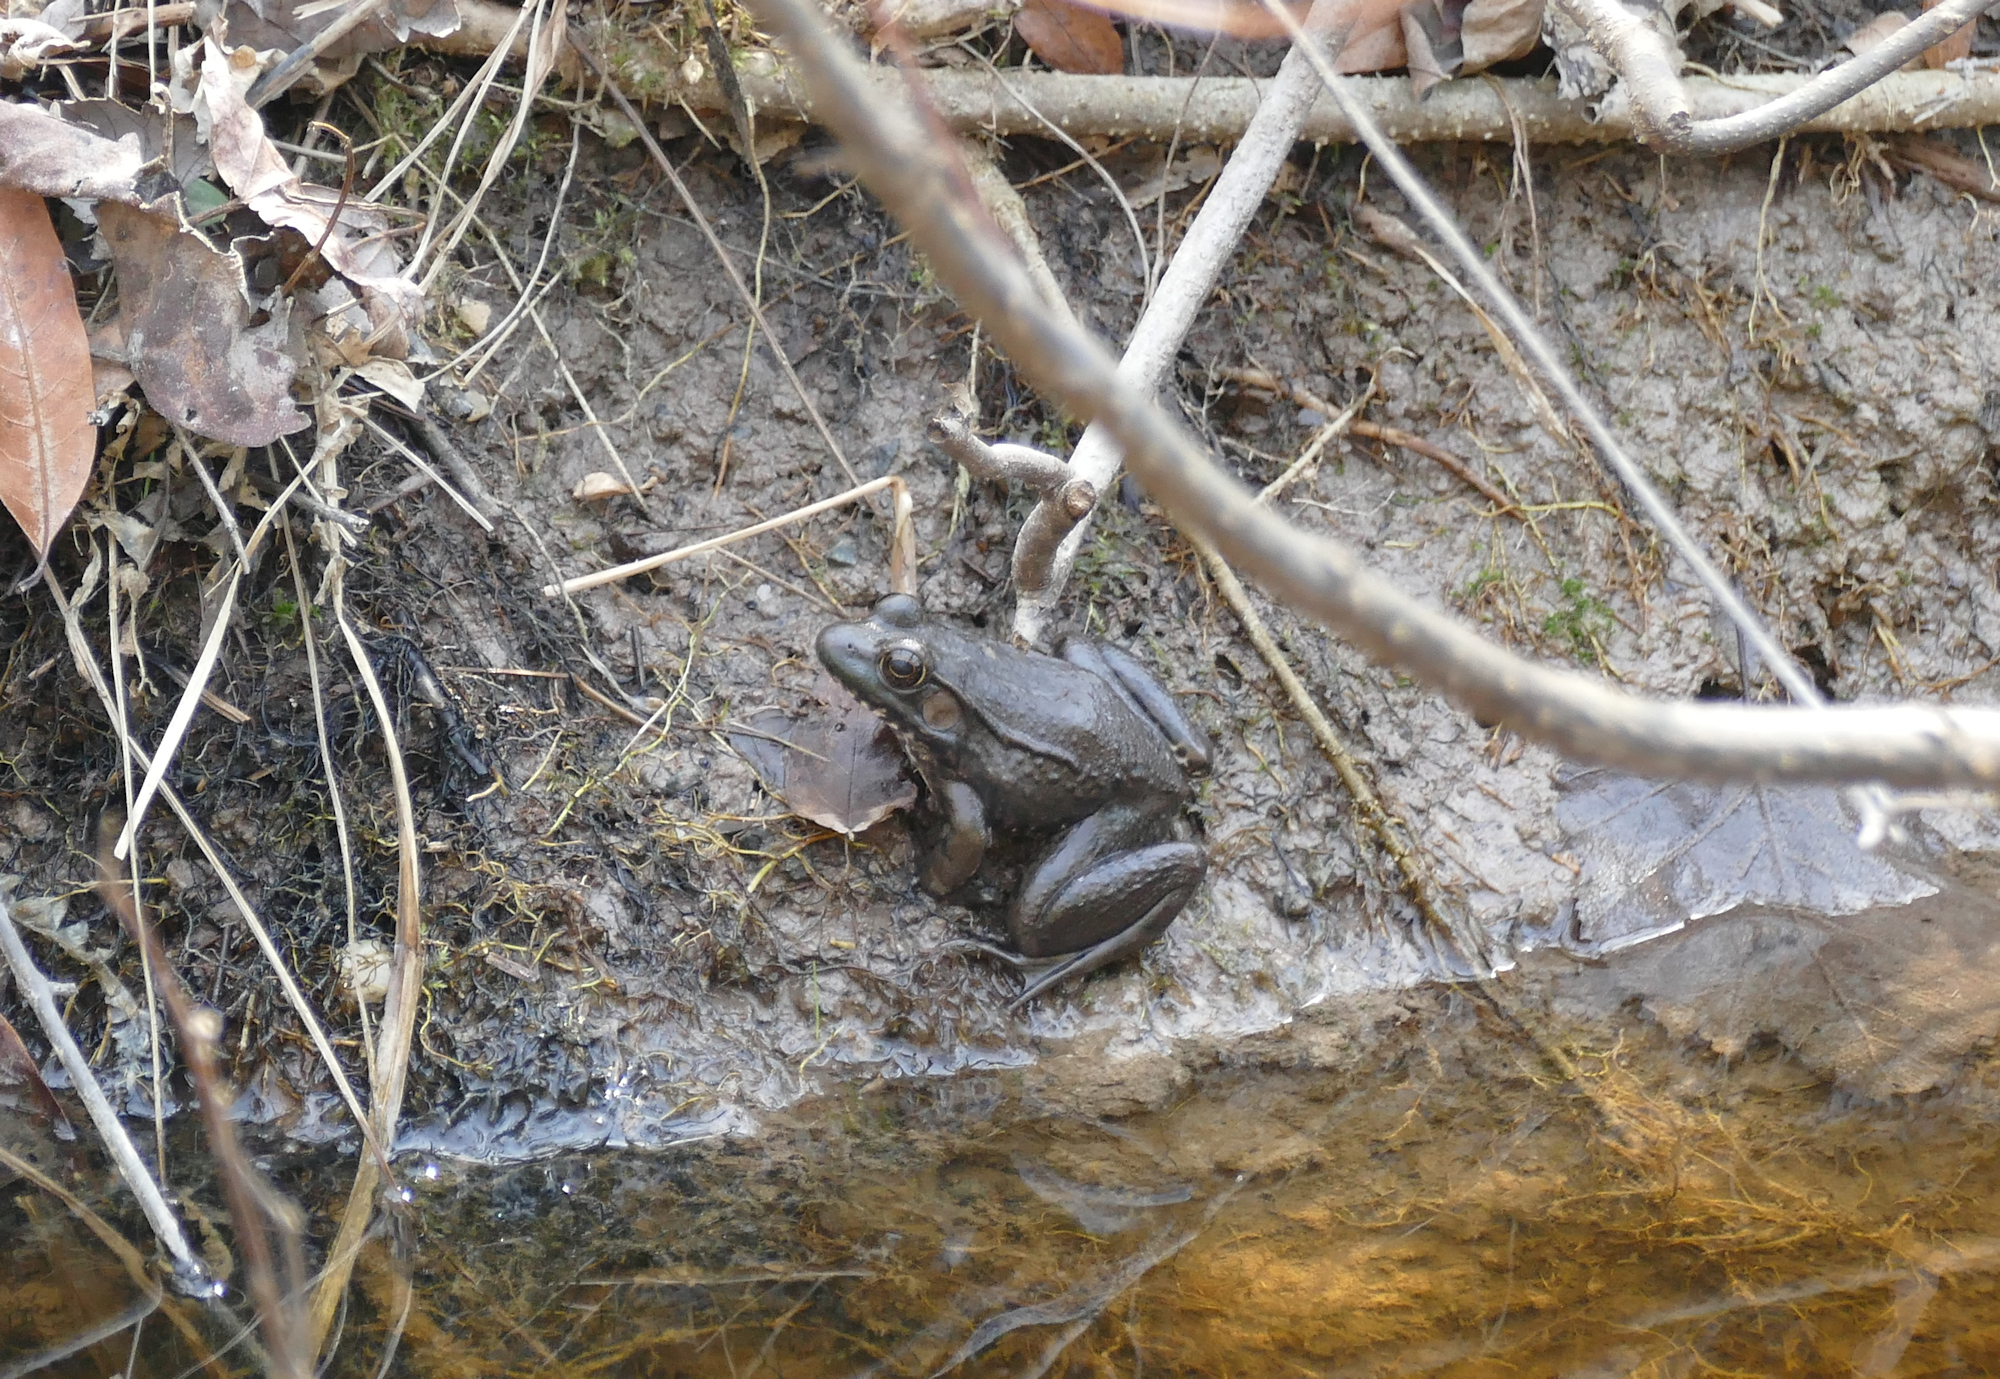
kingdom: Animalia
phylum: Chordata
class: Amphibia
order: Anura
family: Ranidae
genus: Lithobates
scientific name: Lithobates clamitans
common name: Green frog
